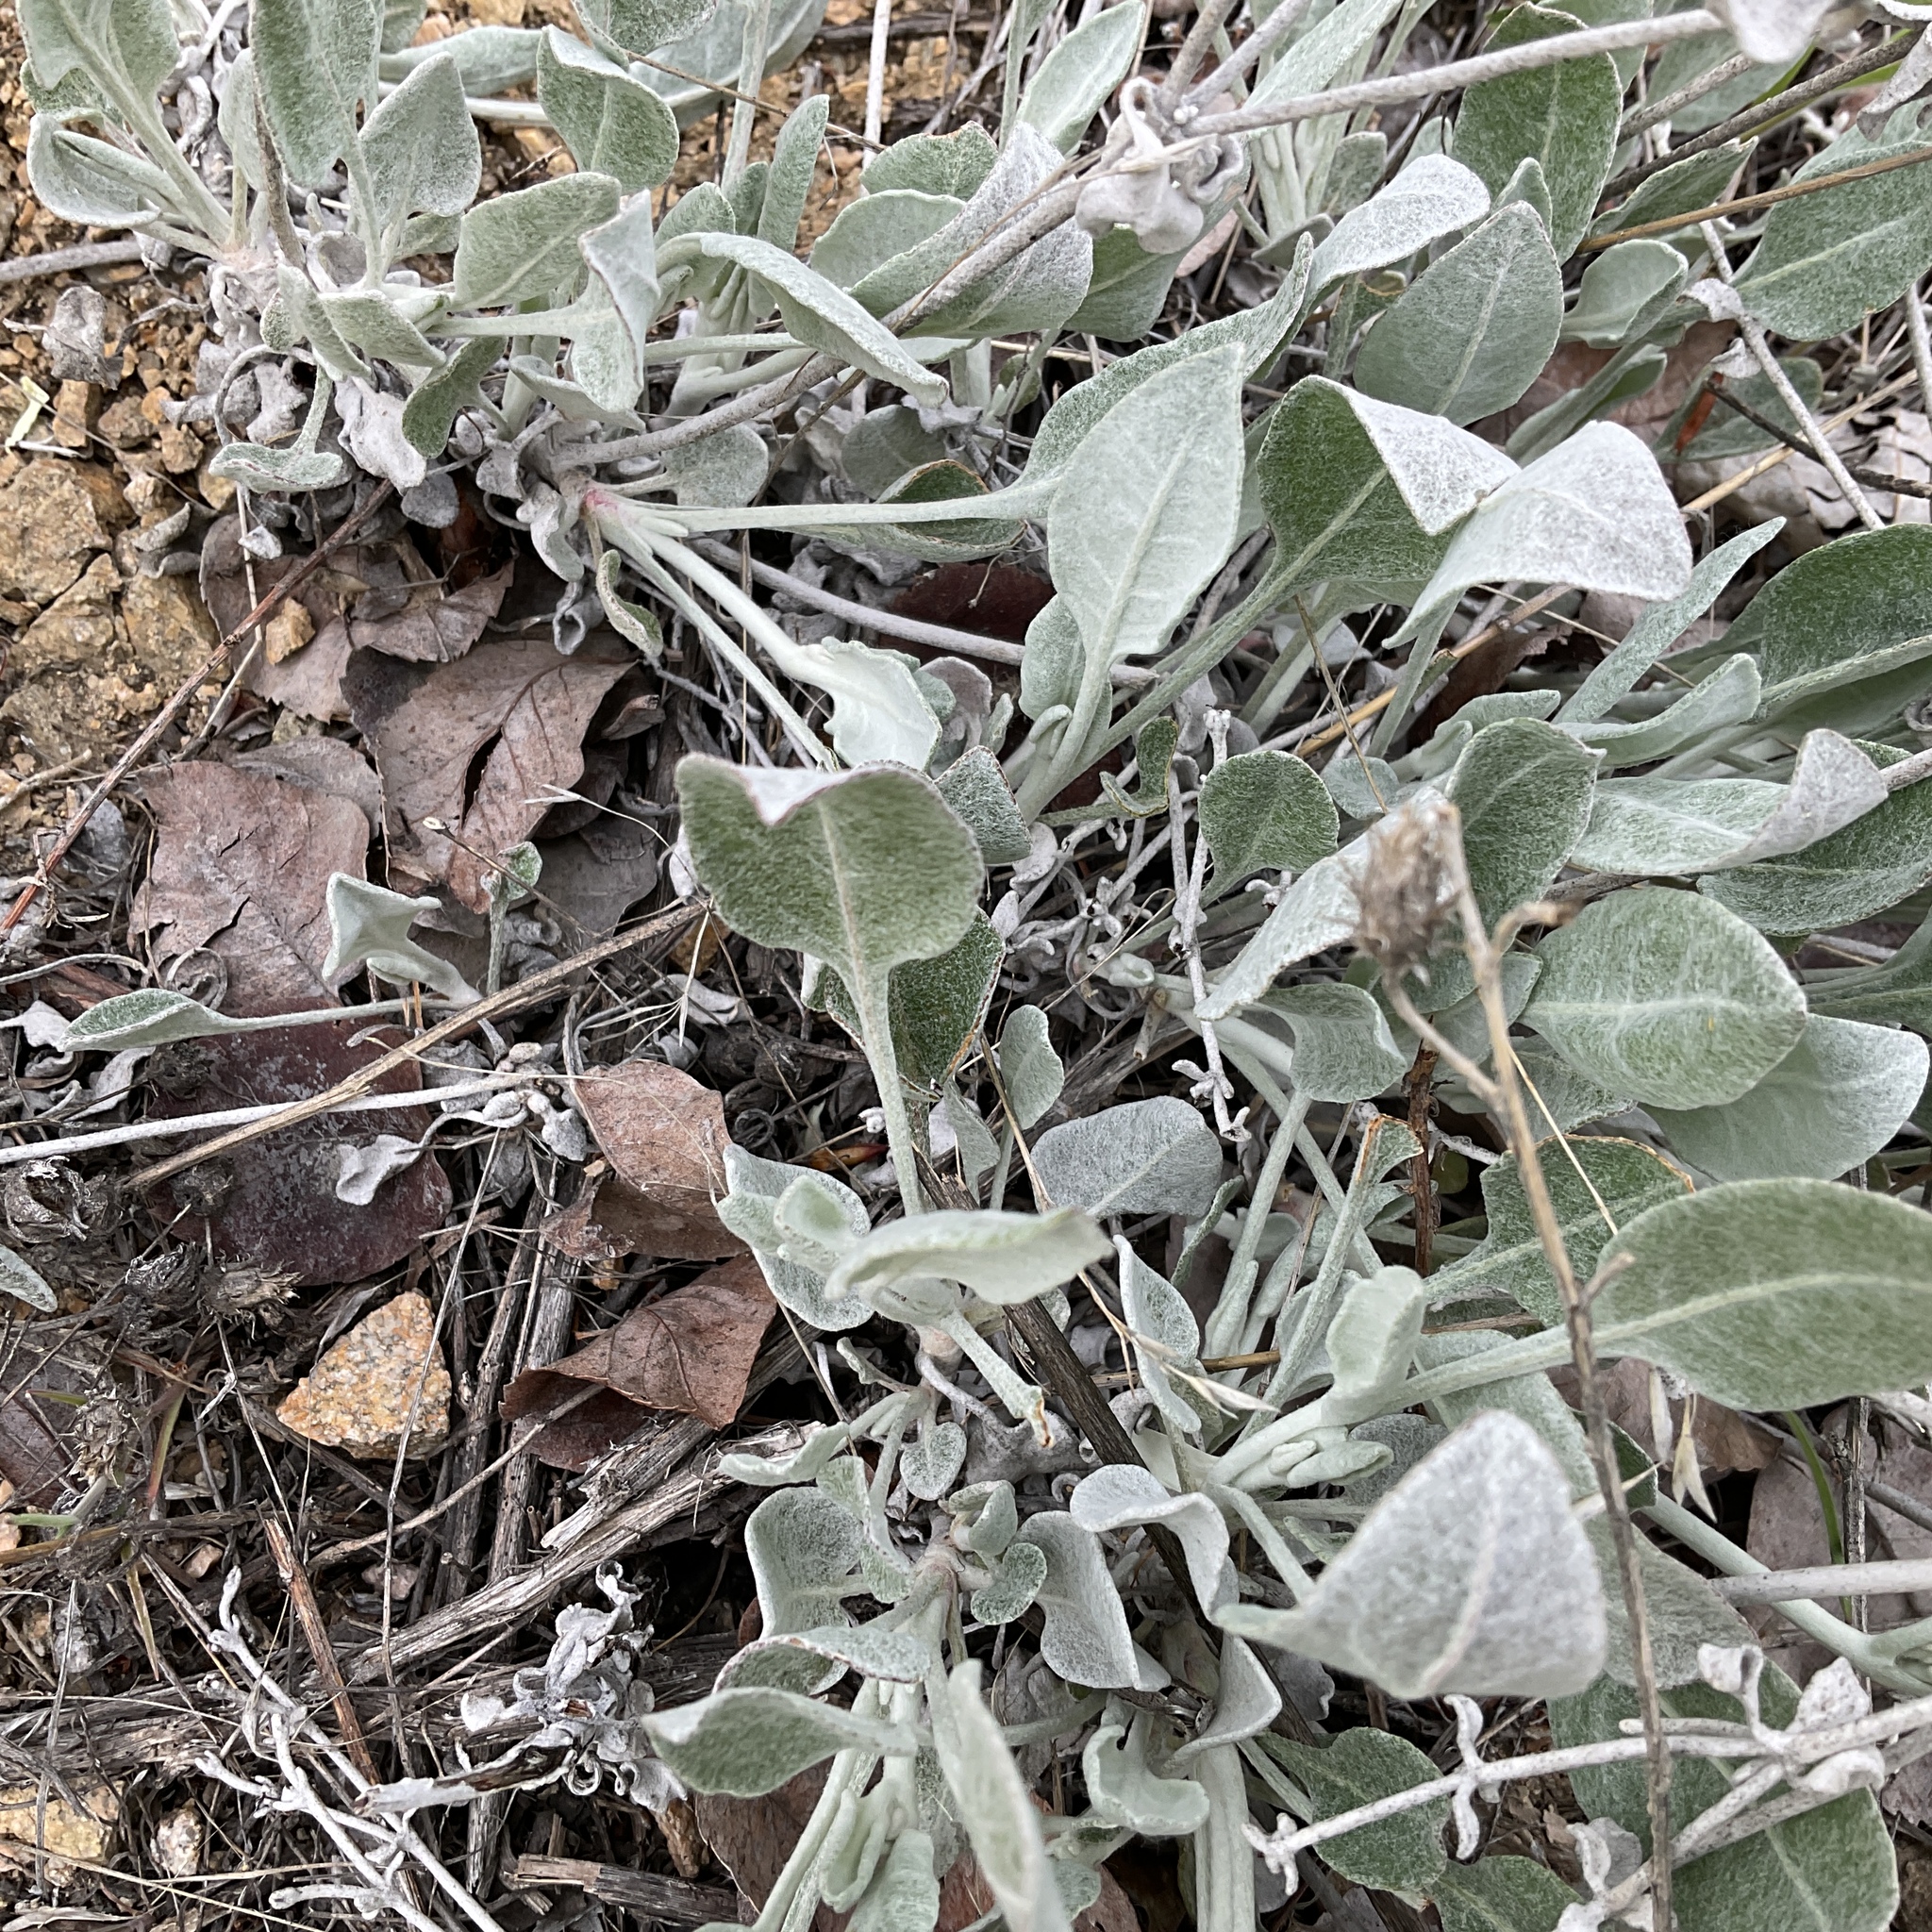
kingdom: Plantae
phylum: Tracheophyta
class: Magnoliopsida
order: Caryophyllales
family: Polygonaceae
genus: Eriogonum
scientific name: Eriogonum niveum
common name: Snow wild buckwheat
